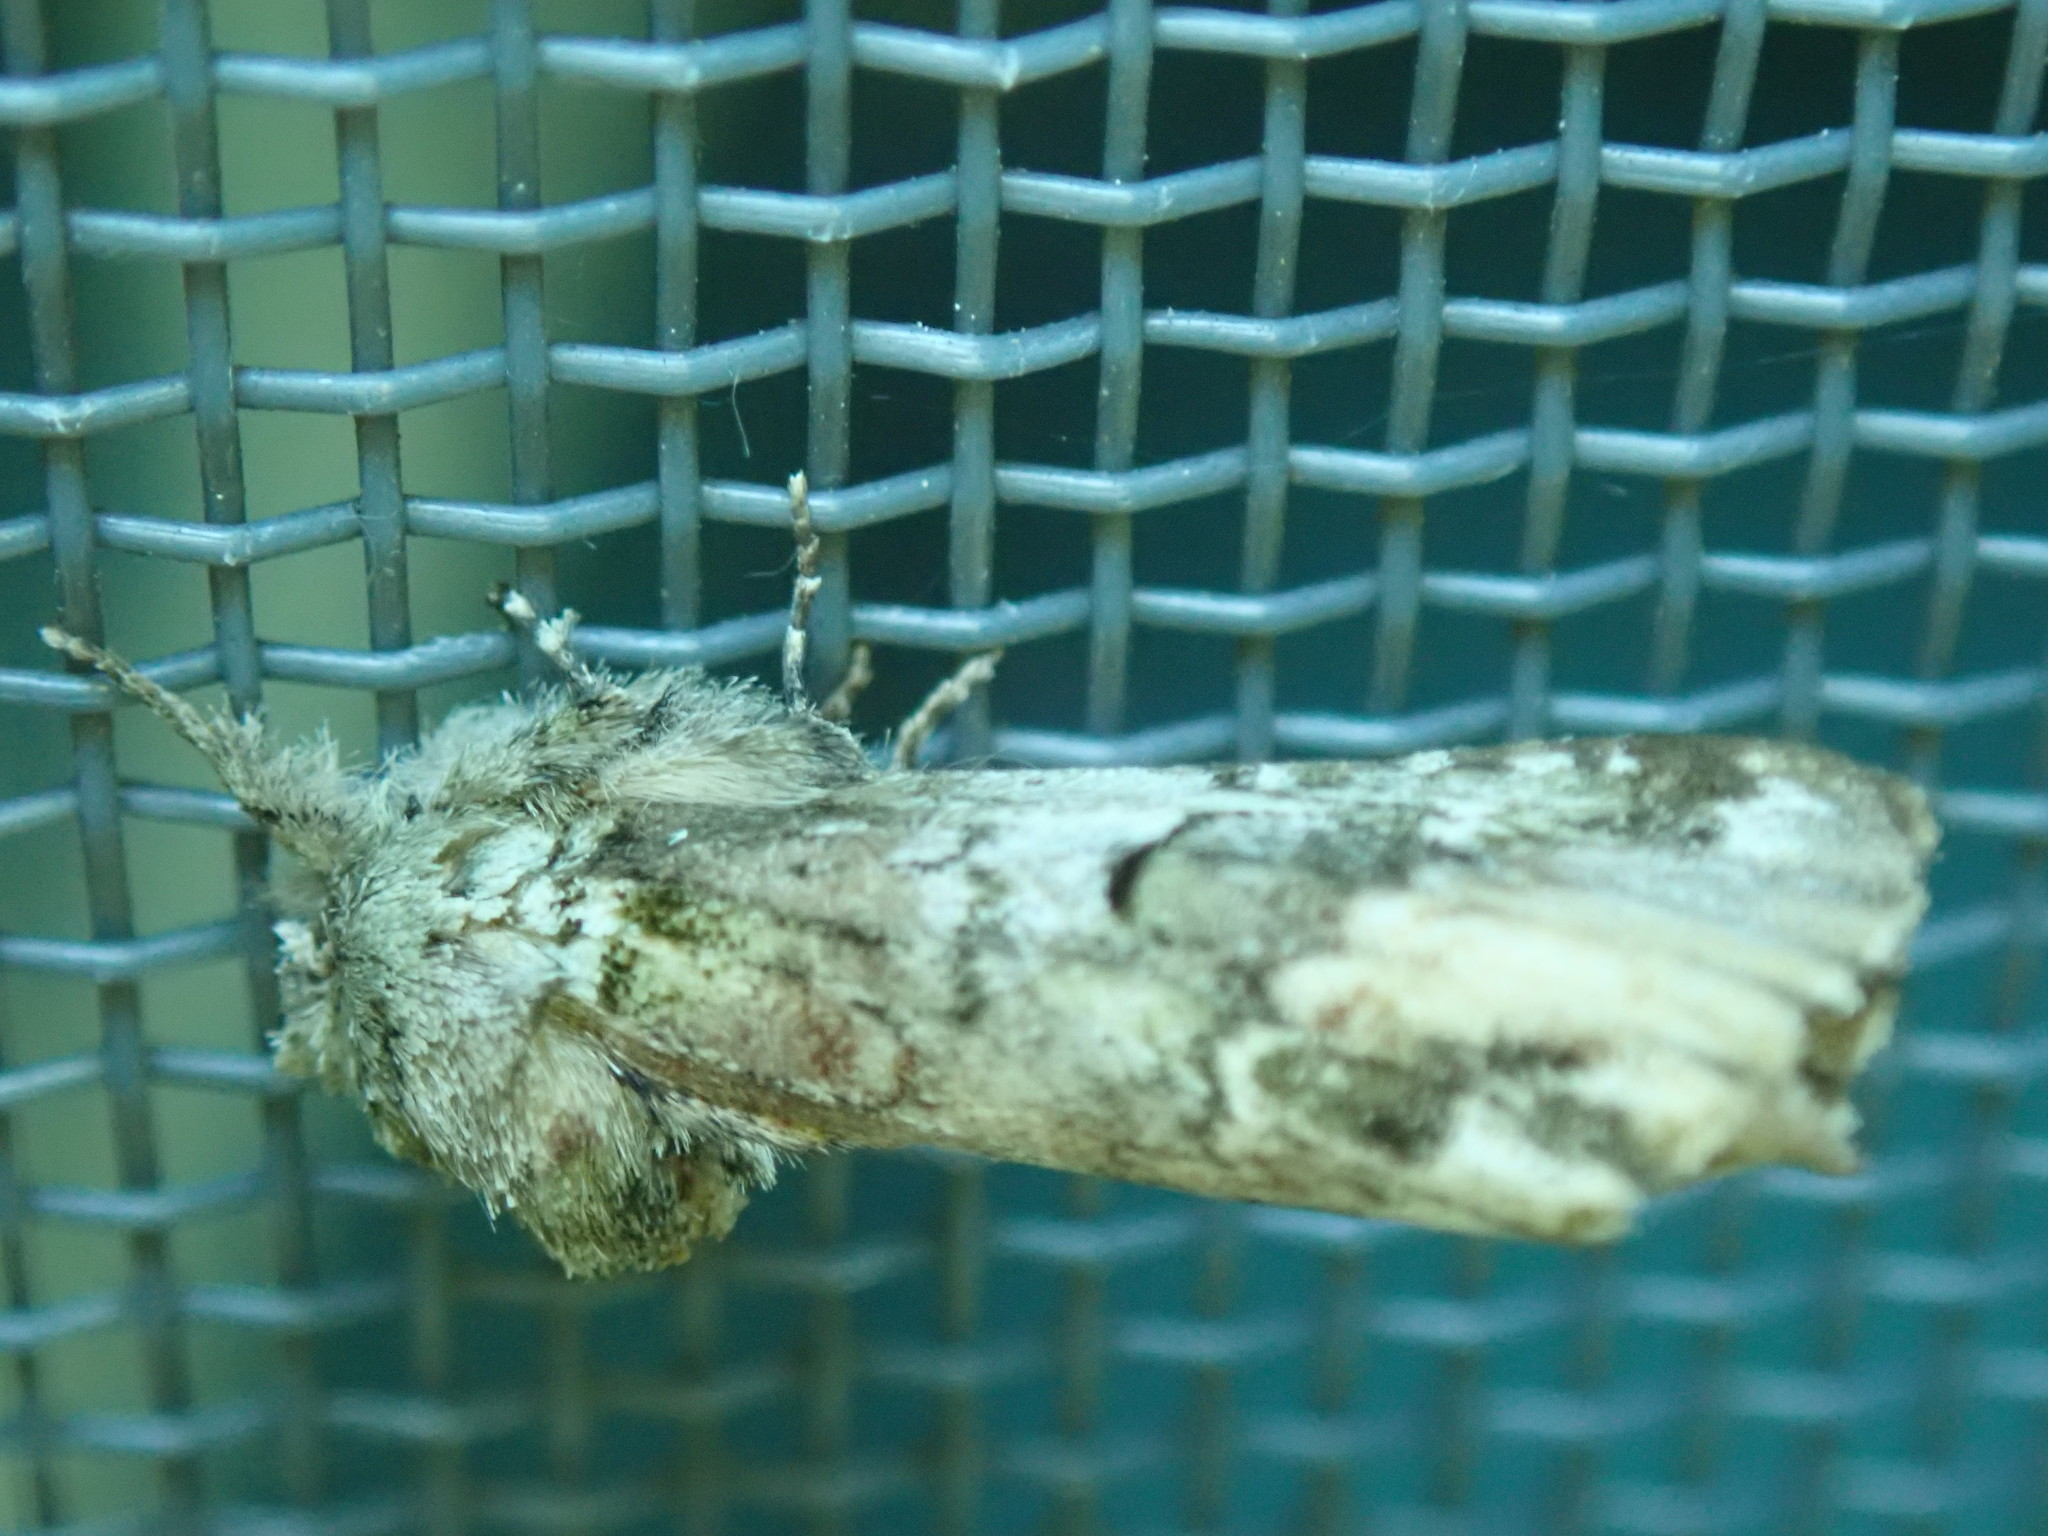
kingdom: Animalia
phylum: Arthropoda
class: Insecta
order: Lepidoptera
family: Notodontidae
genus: Schizura
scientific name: Schizura
